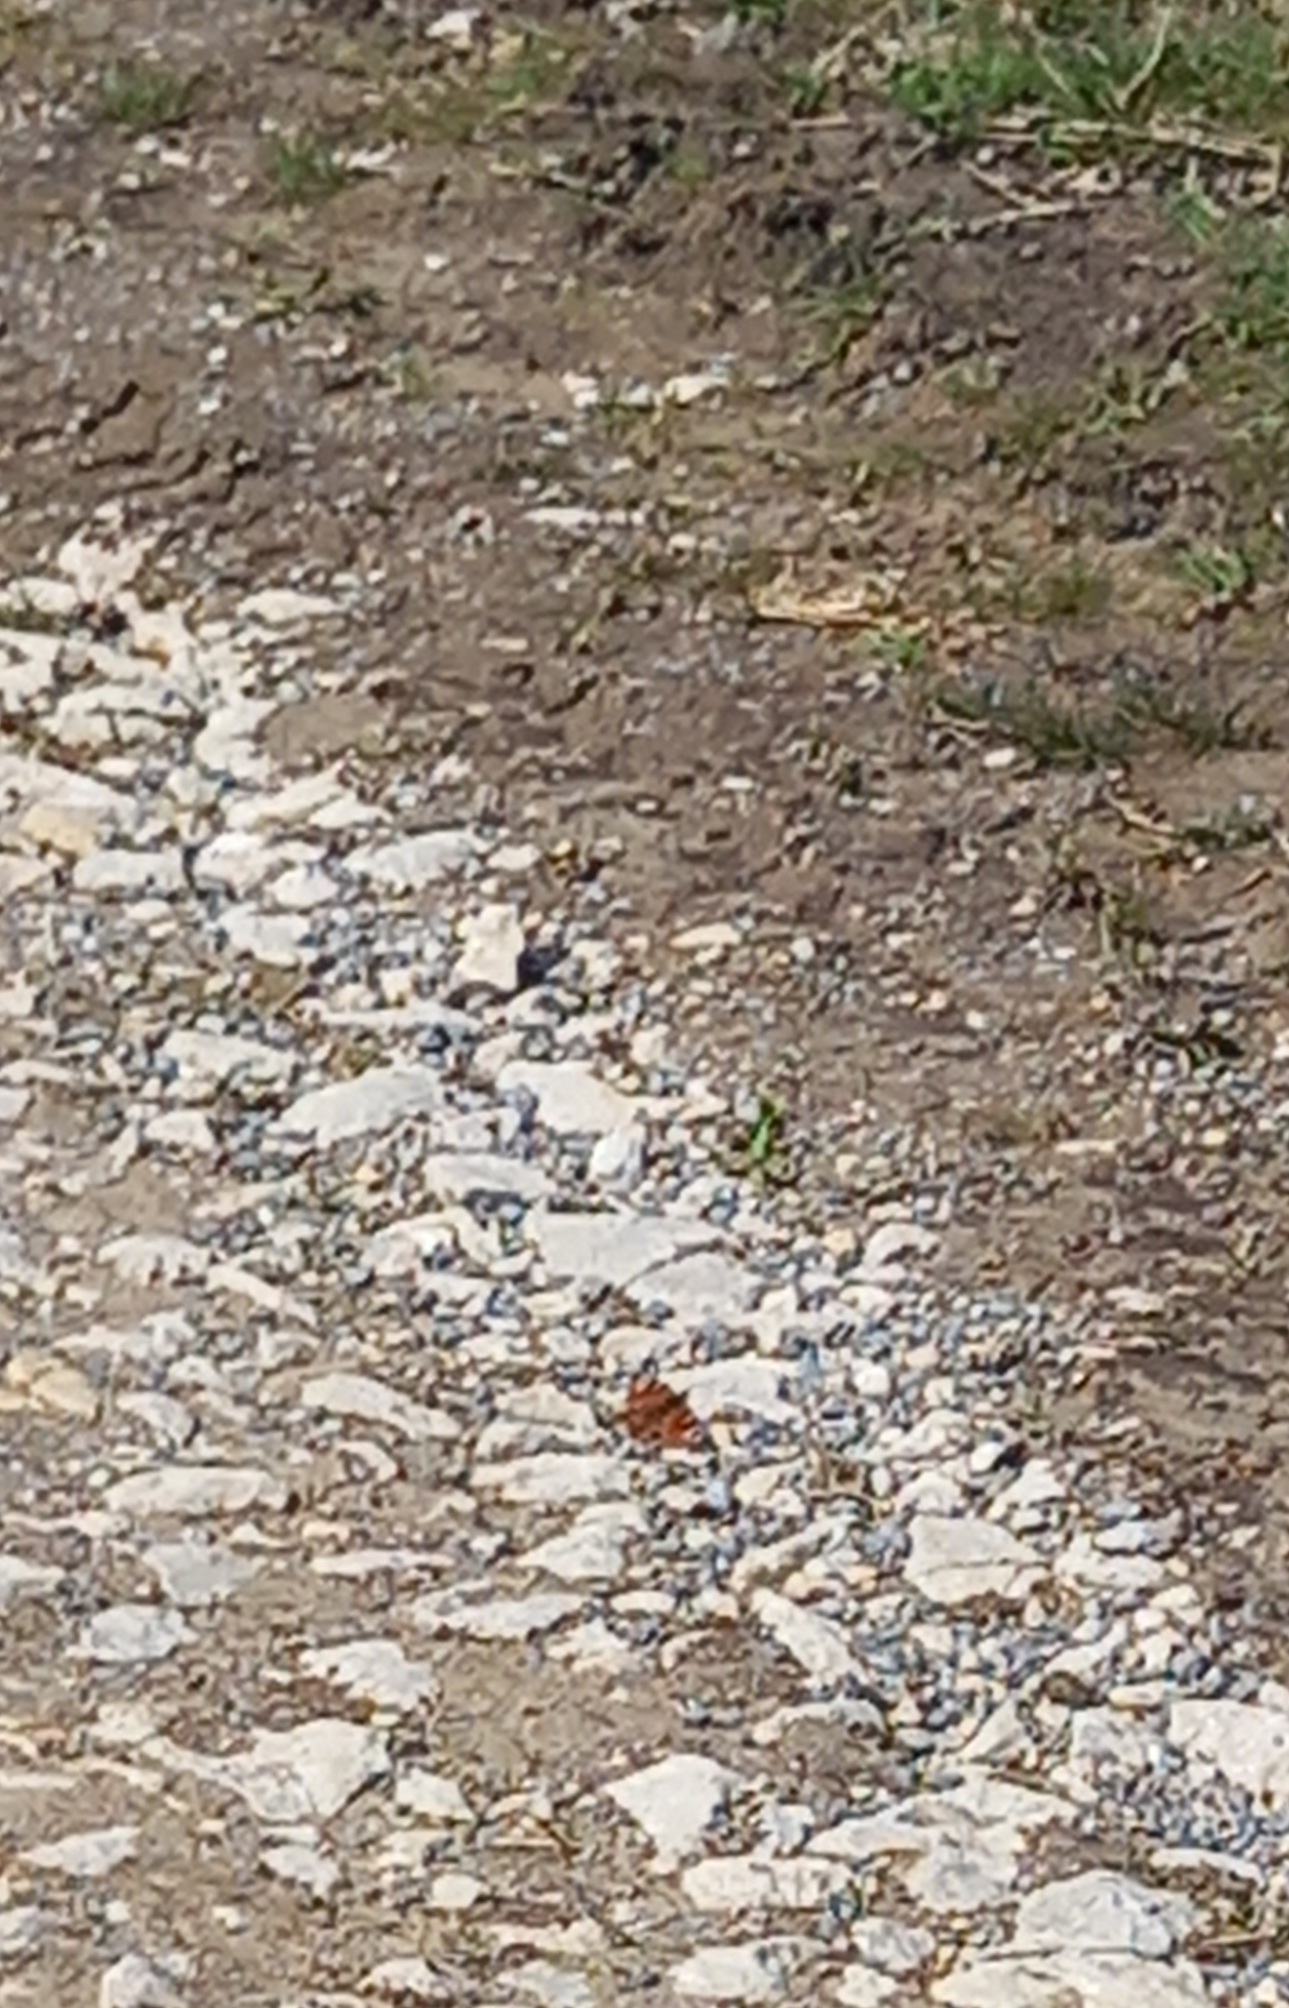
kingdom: Animalia
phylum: Arthropoda
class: Insecta
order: Lepidoptera
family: Nymphalidae
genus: Aglais
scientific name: Aglais io
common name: Peacock
